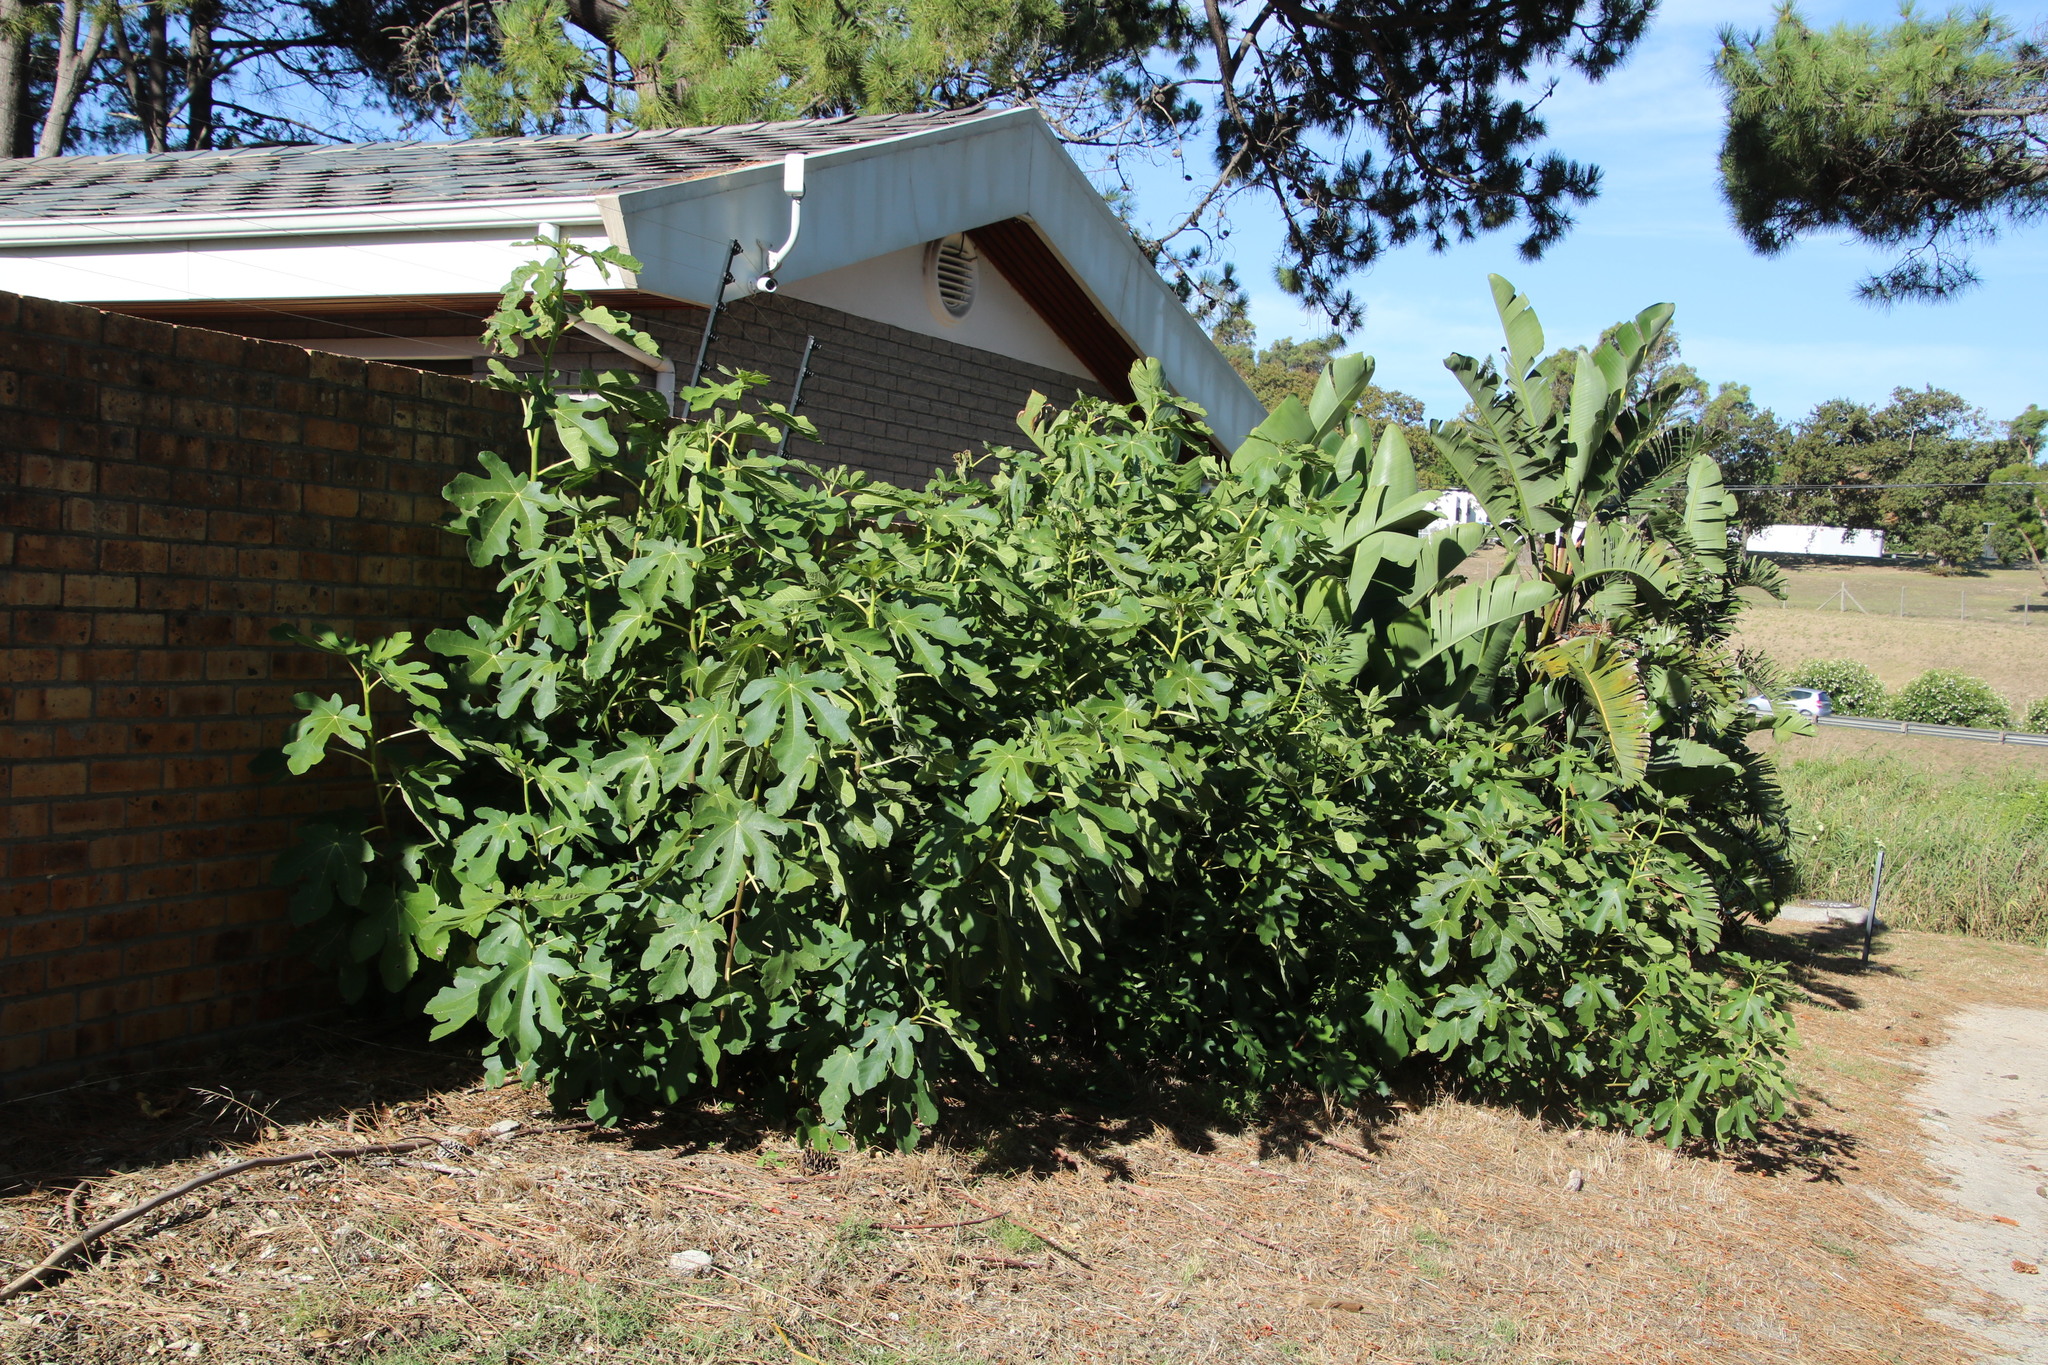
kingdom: Plantae
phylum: Tracheophyta
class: Magnoliopsida
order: Rosales
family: Moraceae
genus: Ficus
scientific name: Ficus carica
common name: Fig
